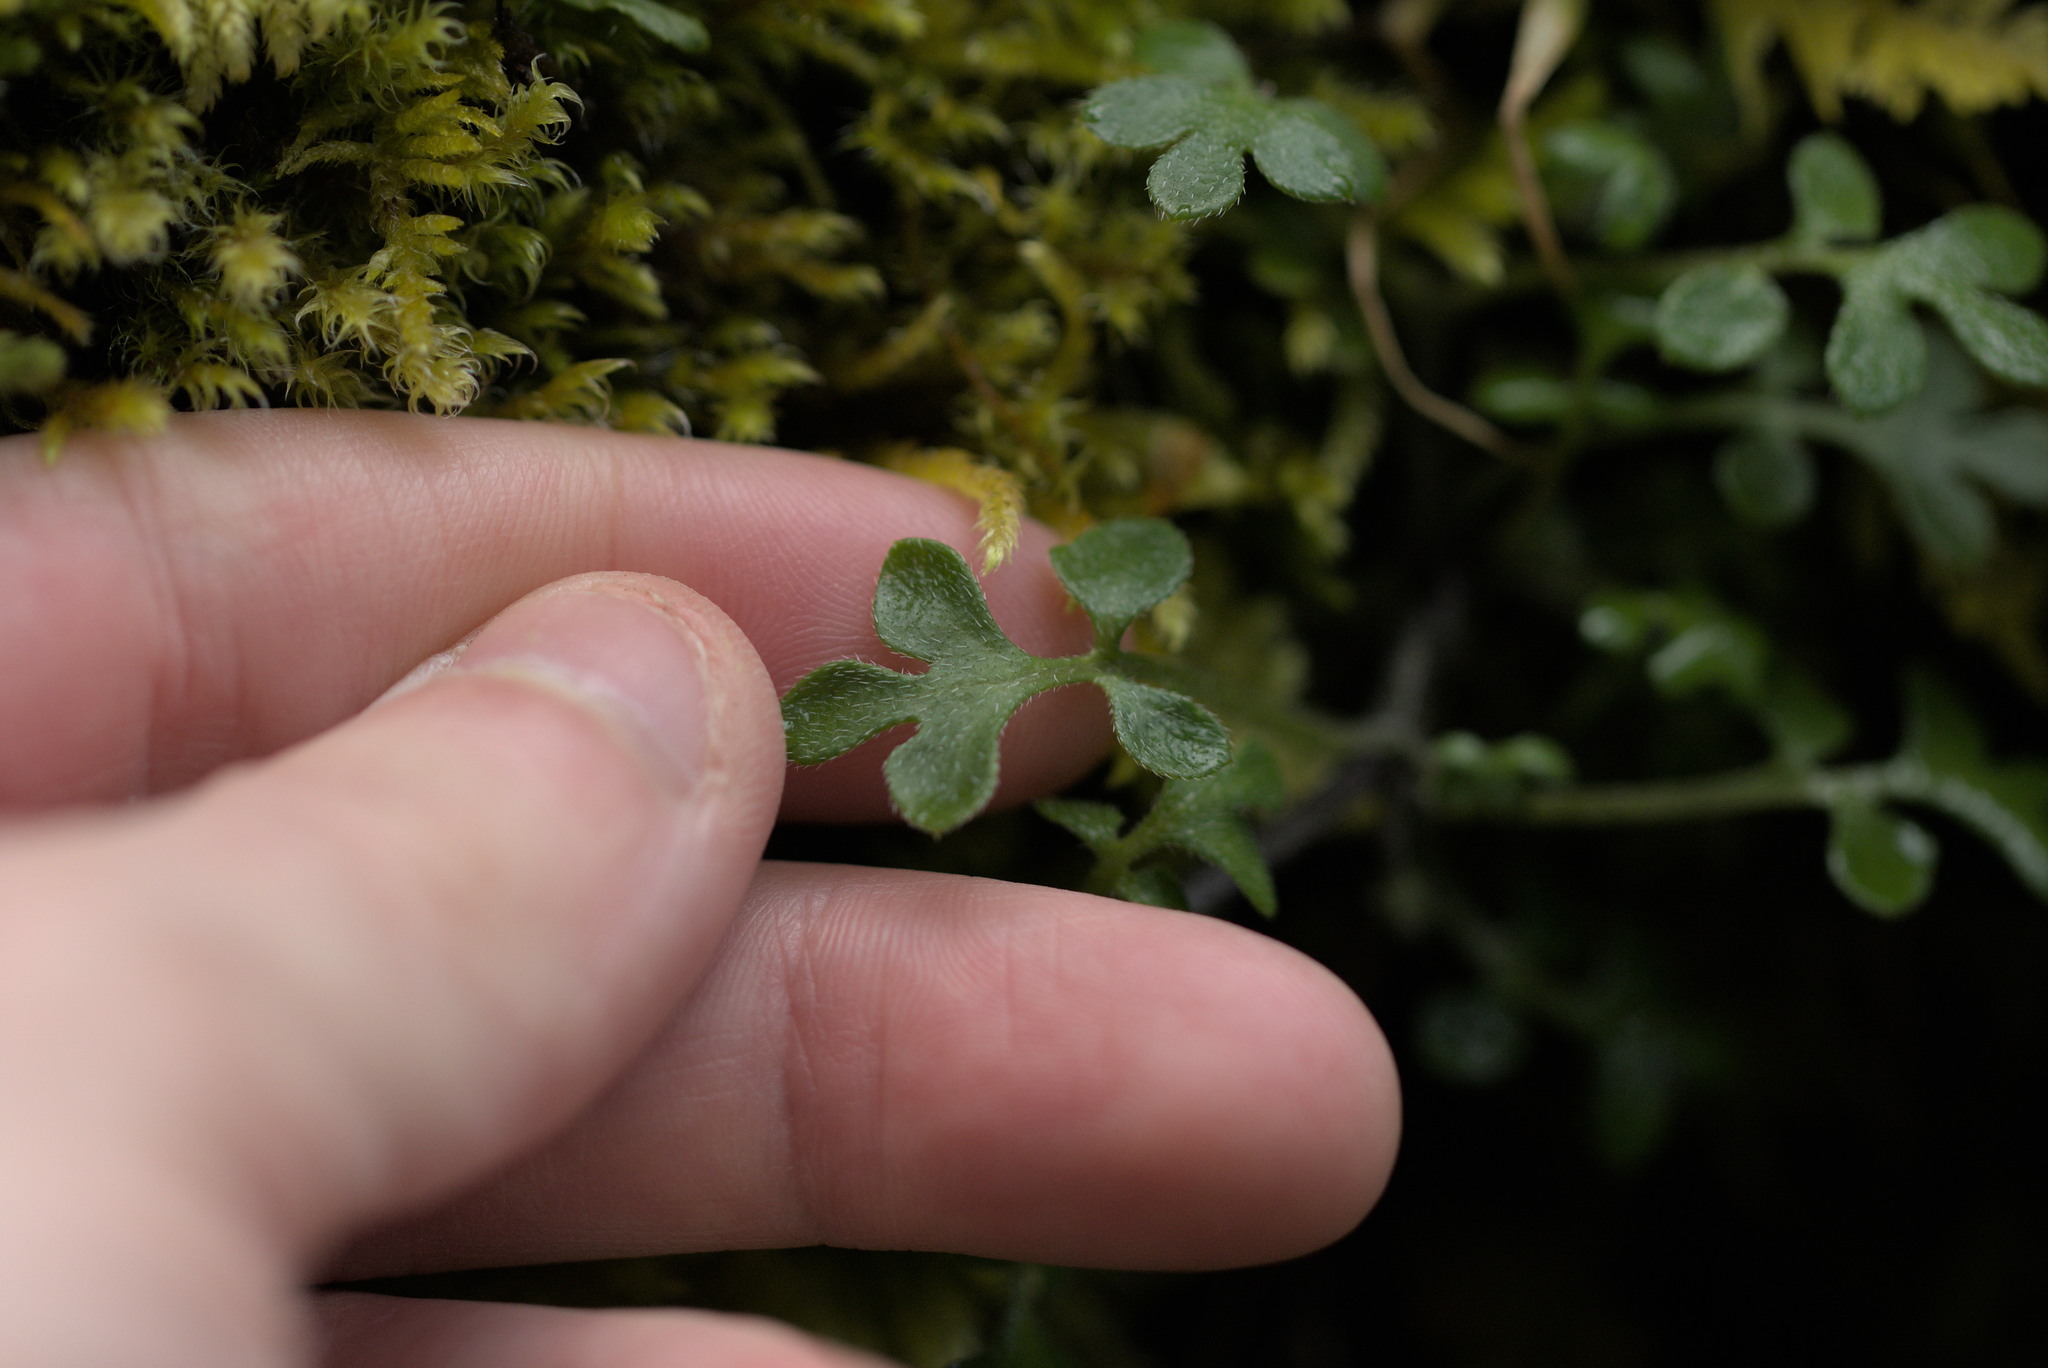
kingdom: Plantae
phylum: Tracheophyta
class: Magnoliopsida
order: Boraginales
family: Hydrophyllaceae
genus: Nemophila
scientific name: Nemophila parviflora
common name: Small-flowered baby-blue-eyes
